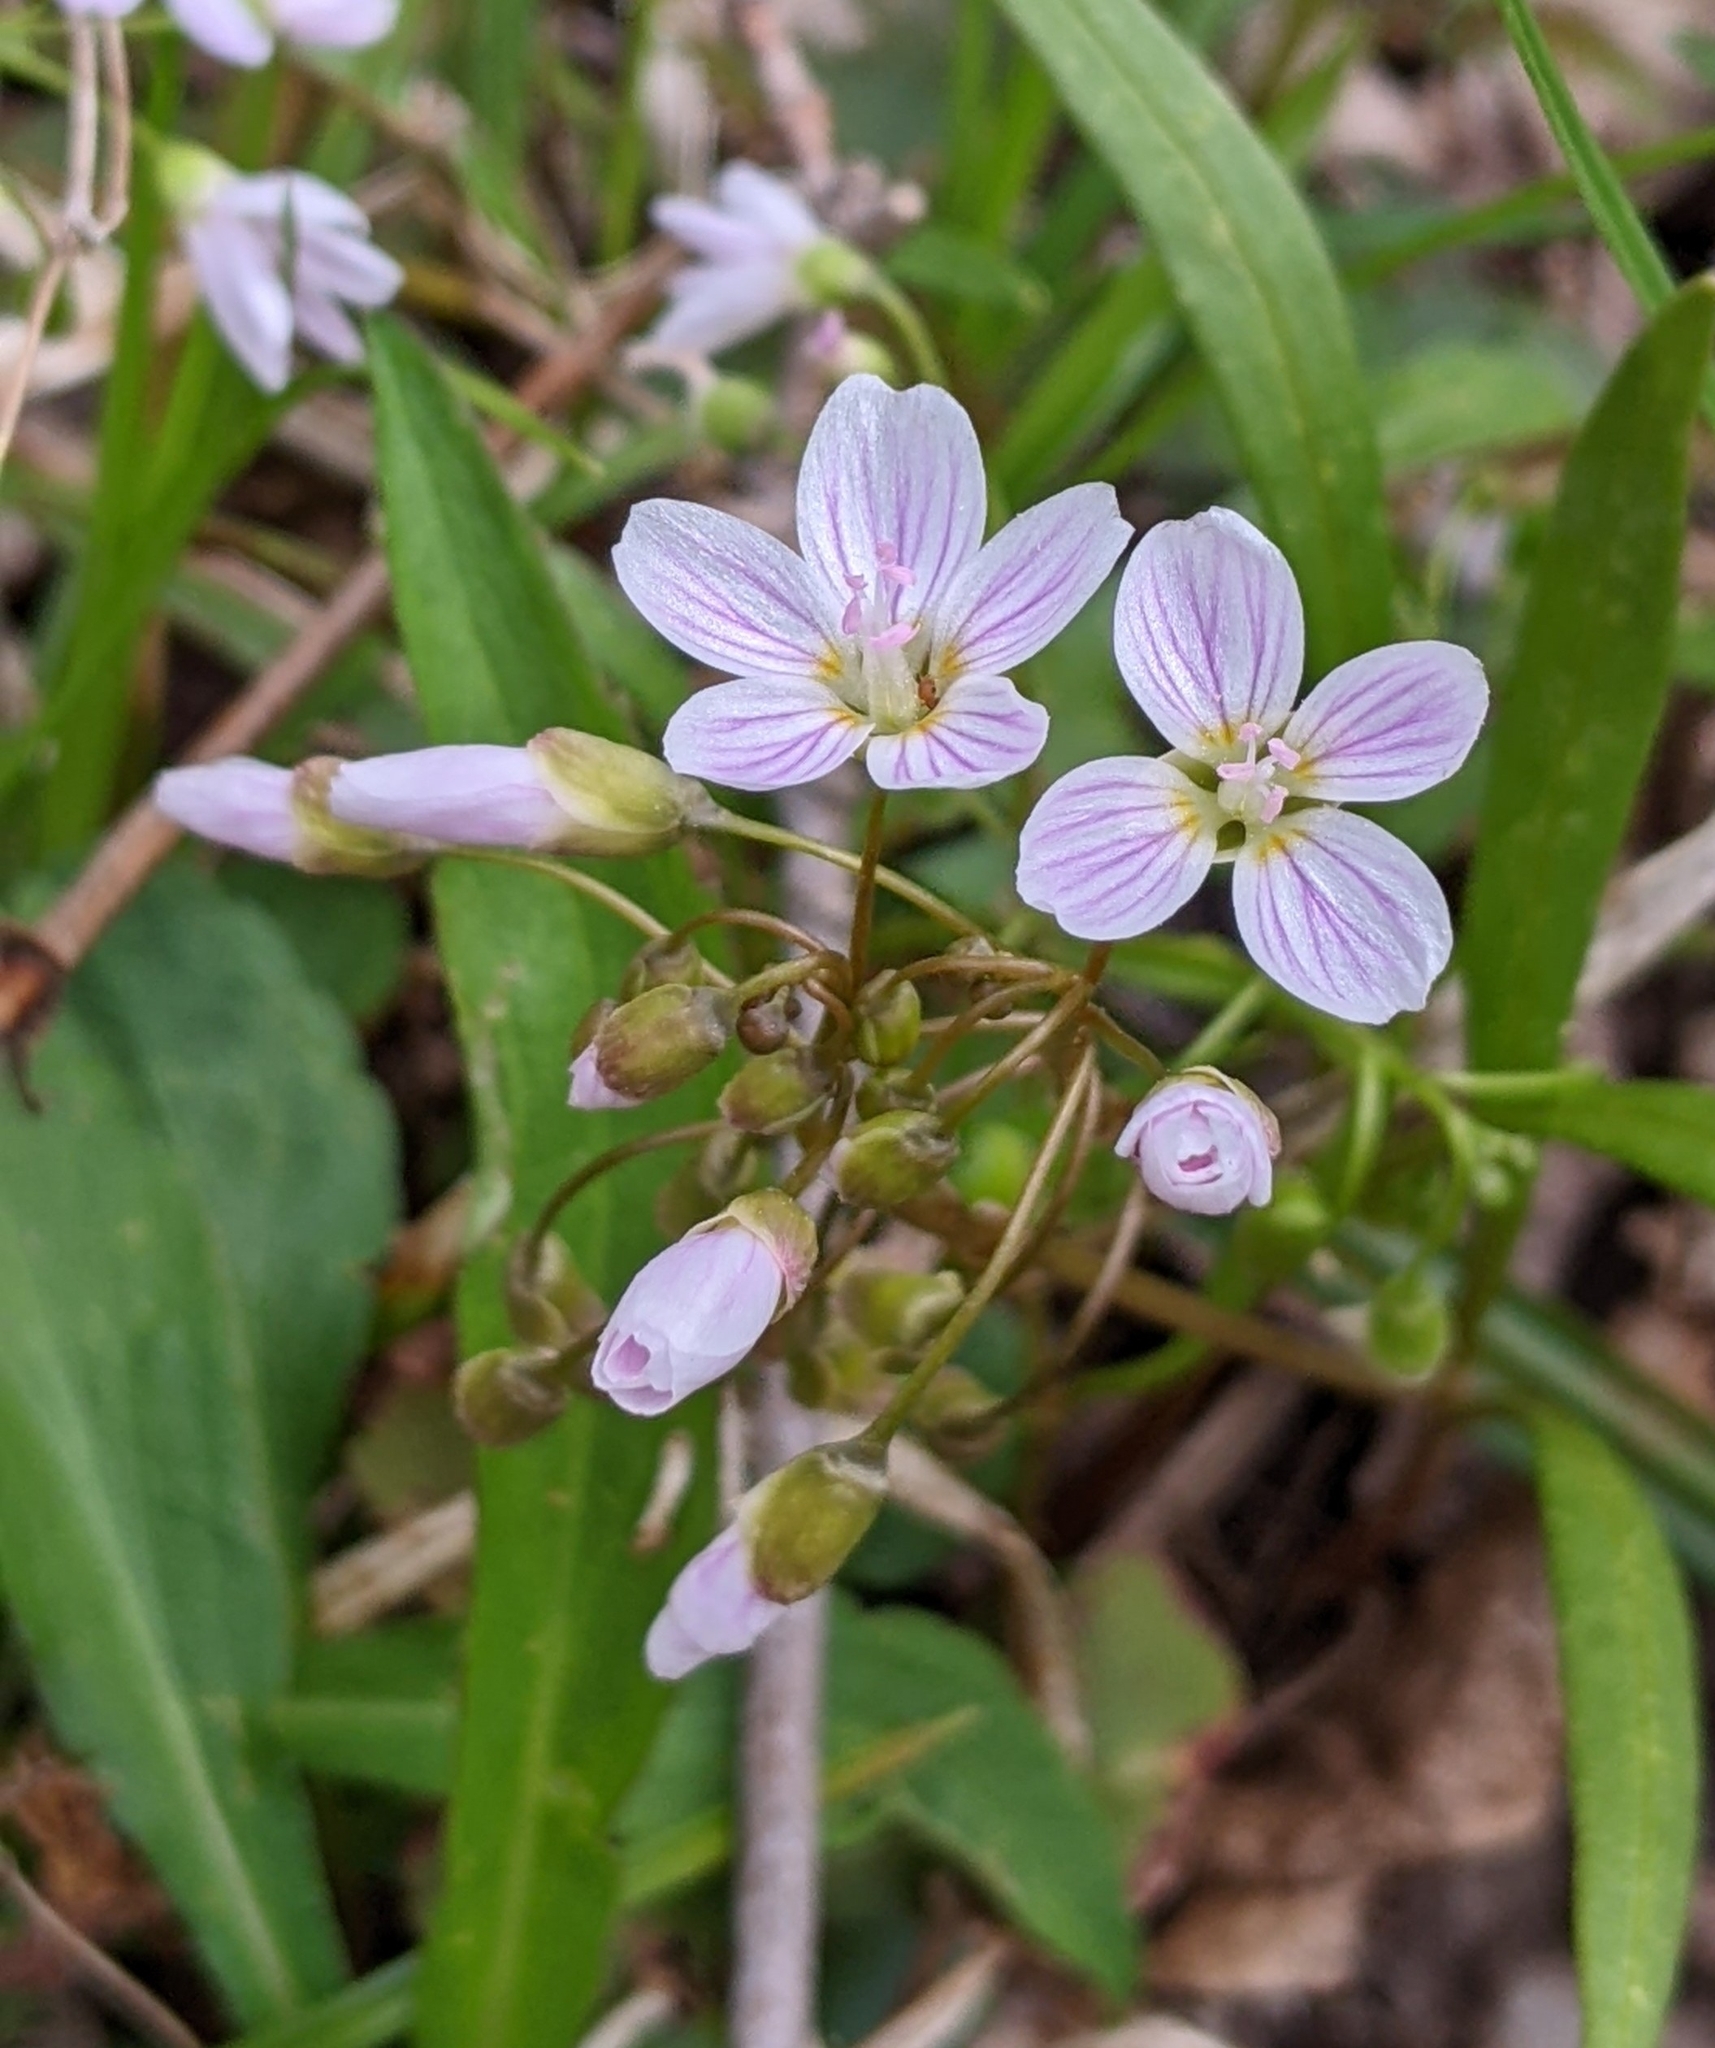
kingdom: Plantae
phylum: Tracheophyta
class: Magnoliopsida
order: Caryophyllales
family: Montiaceae
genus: Claytonia
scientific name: Claytonia virginica
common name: Virginia springbeauty
